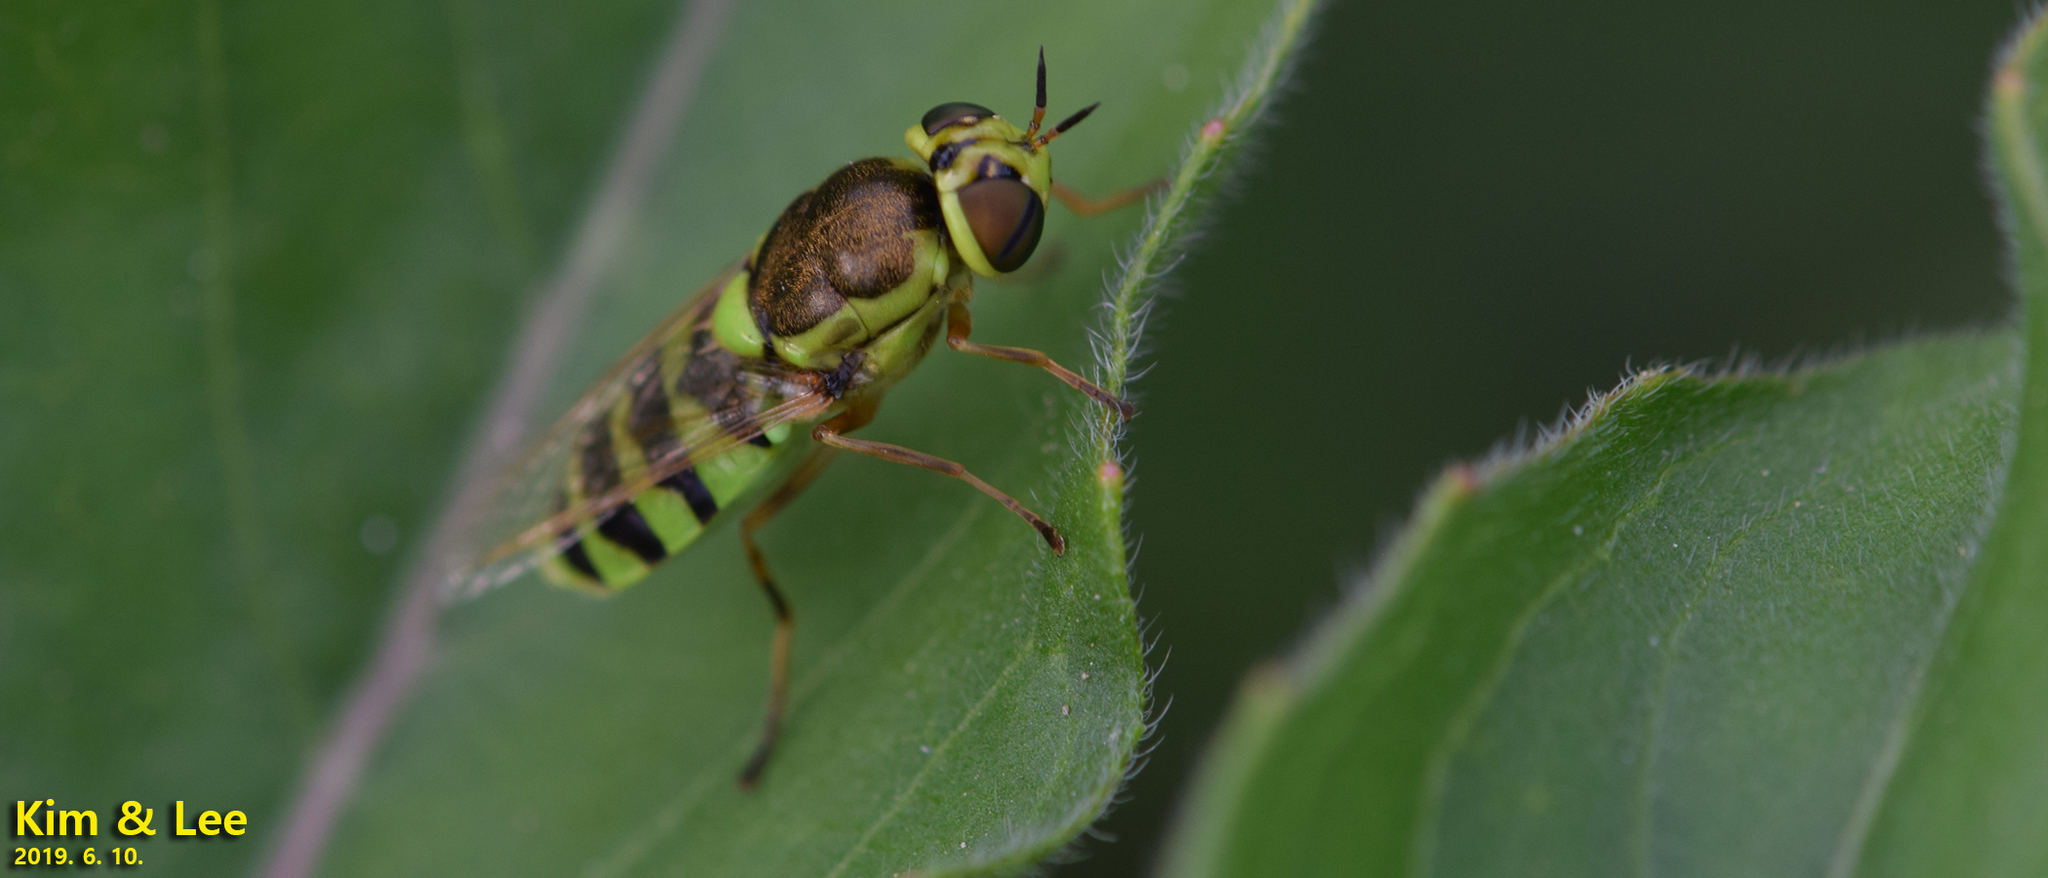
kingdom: Animalia
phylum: Arthropoda
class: Insecta
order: Diptera
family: Stratiomyidae
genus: Odontomyia
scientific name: Odontomyia garatas
